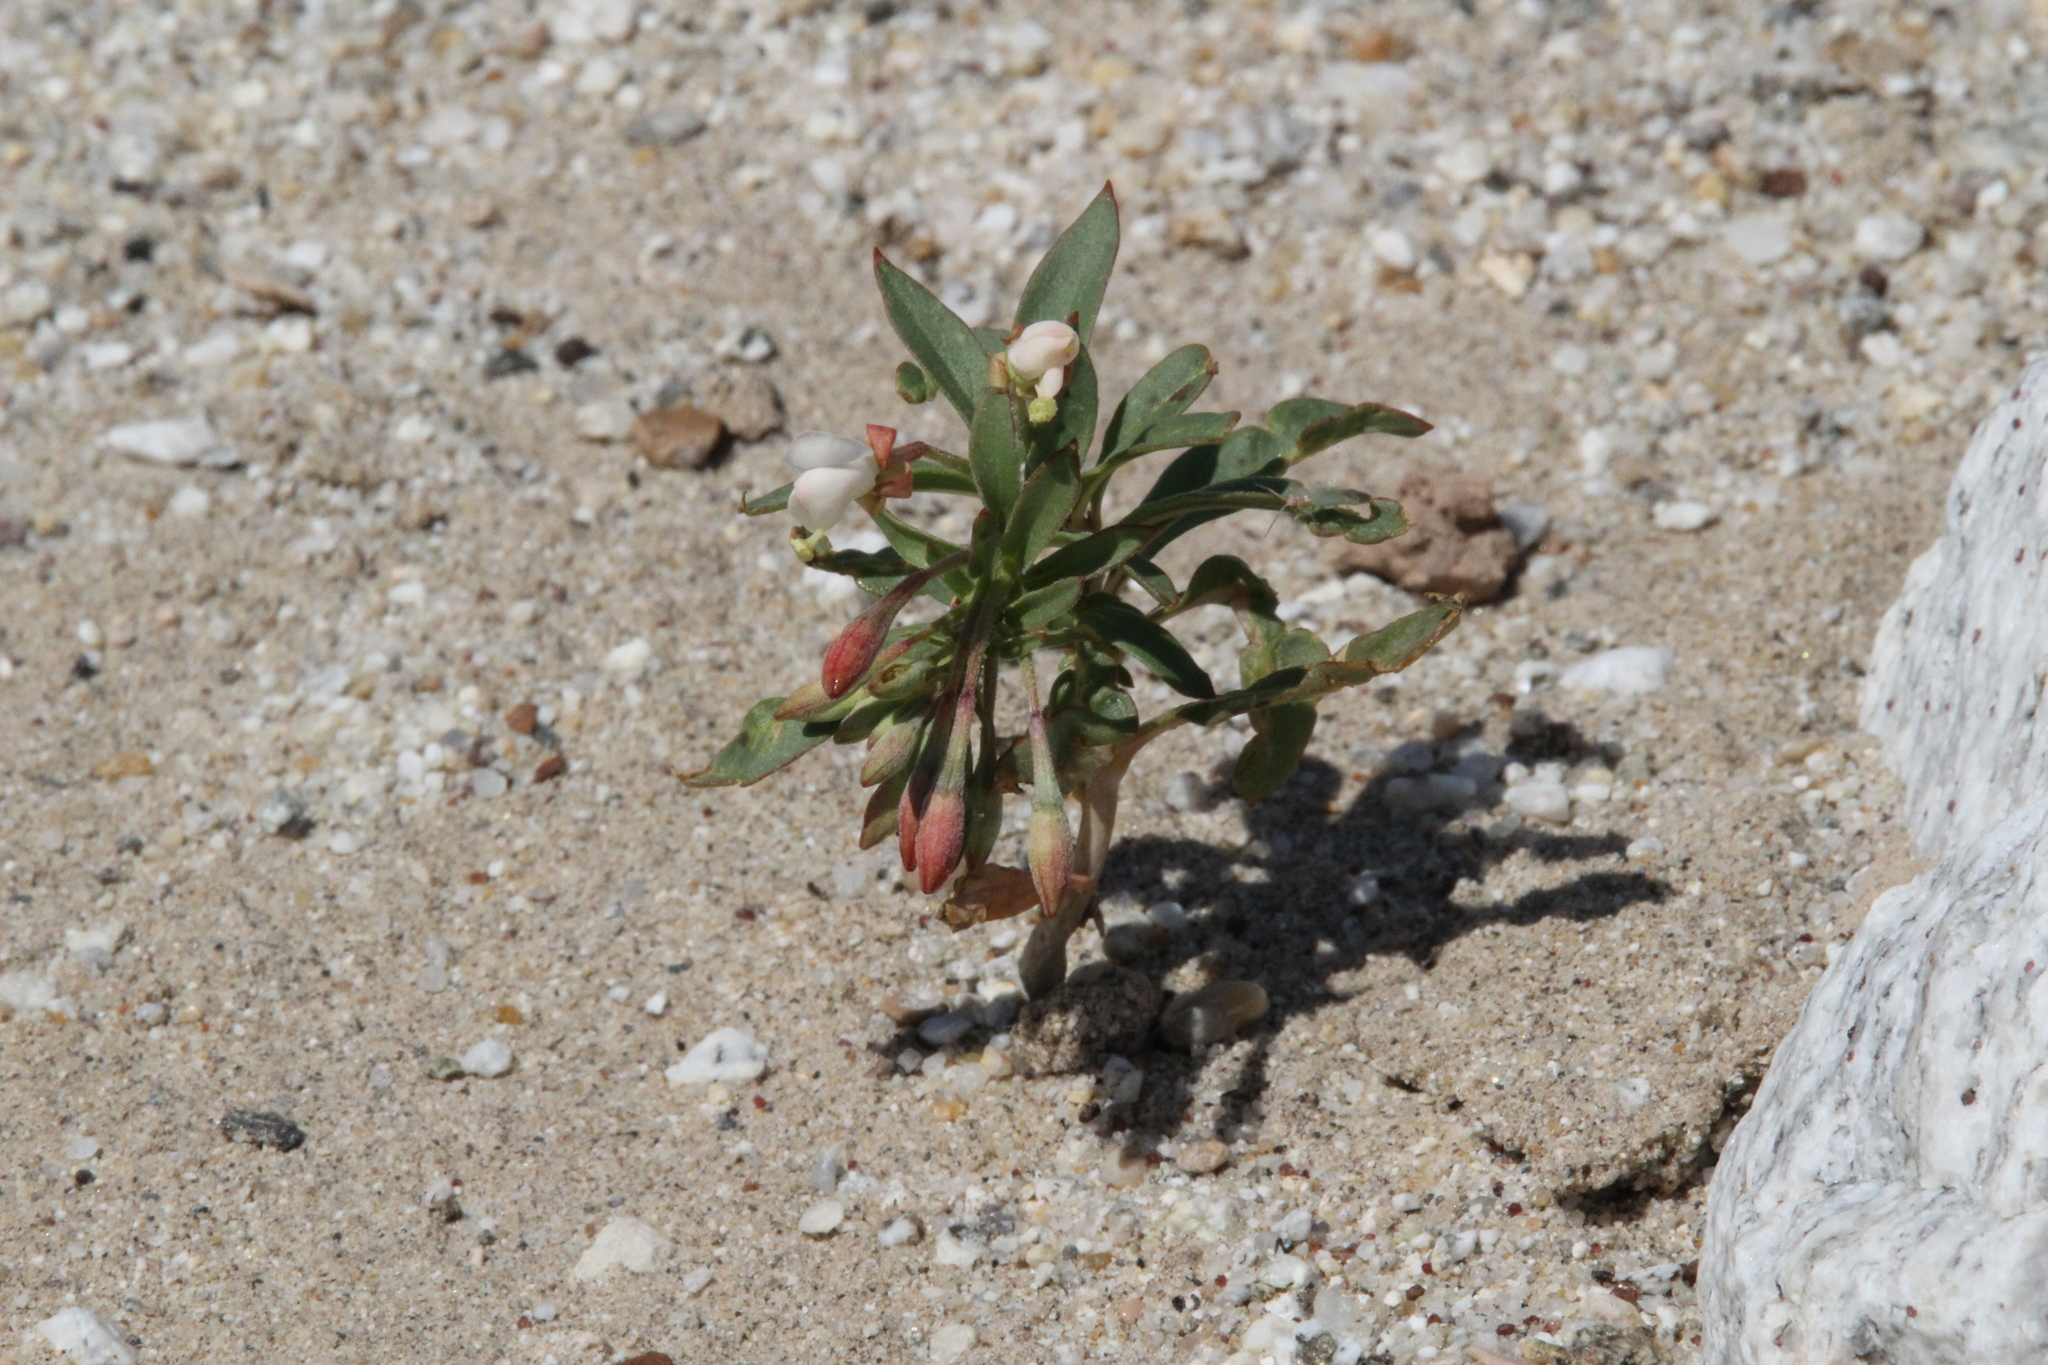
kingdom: Plantae
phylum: Tracheophyta
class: Magnoliopsida
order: Myrtales
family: Onagraceae
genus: Eremothera
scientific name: Eremothera boothii
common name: Booth's evening primrose
